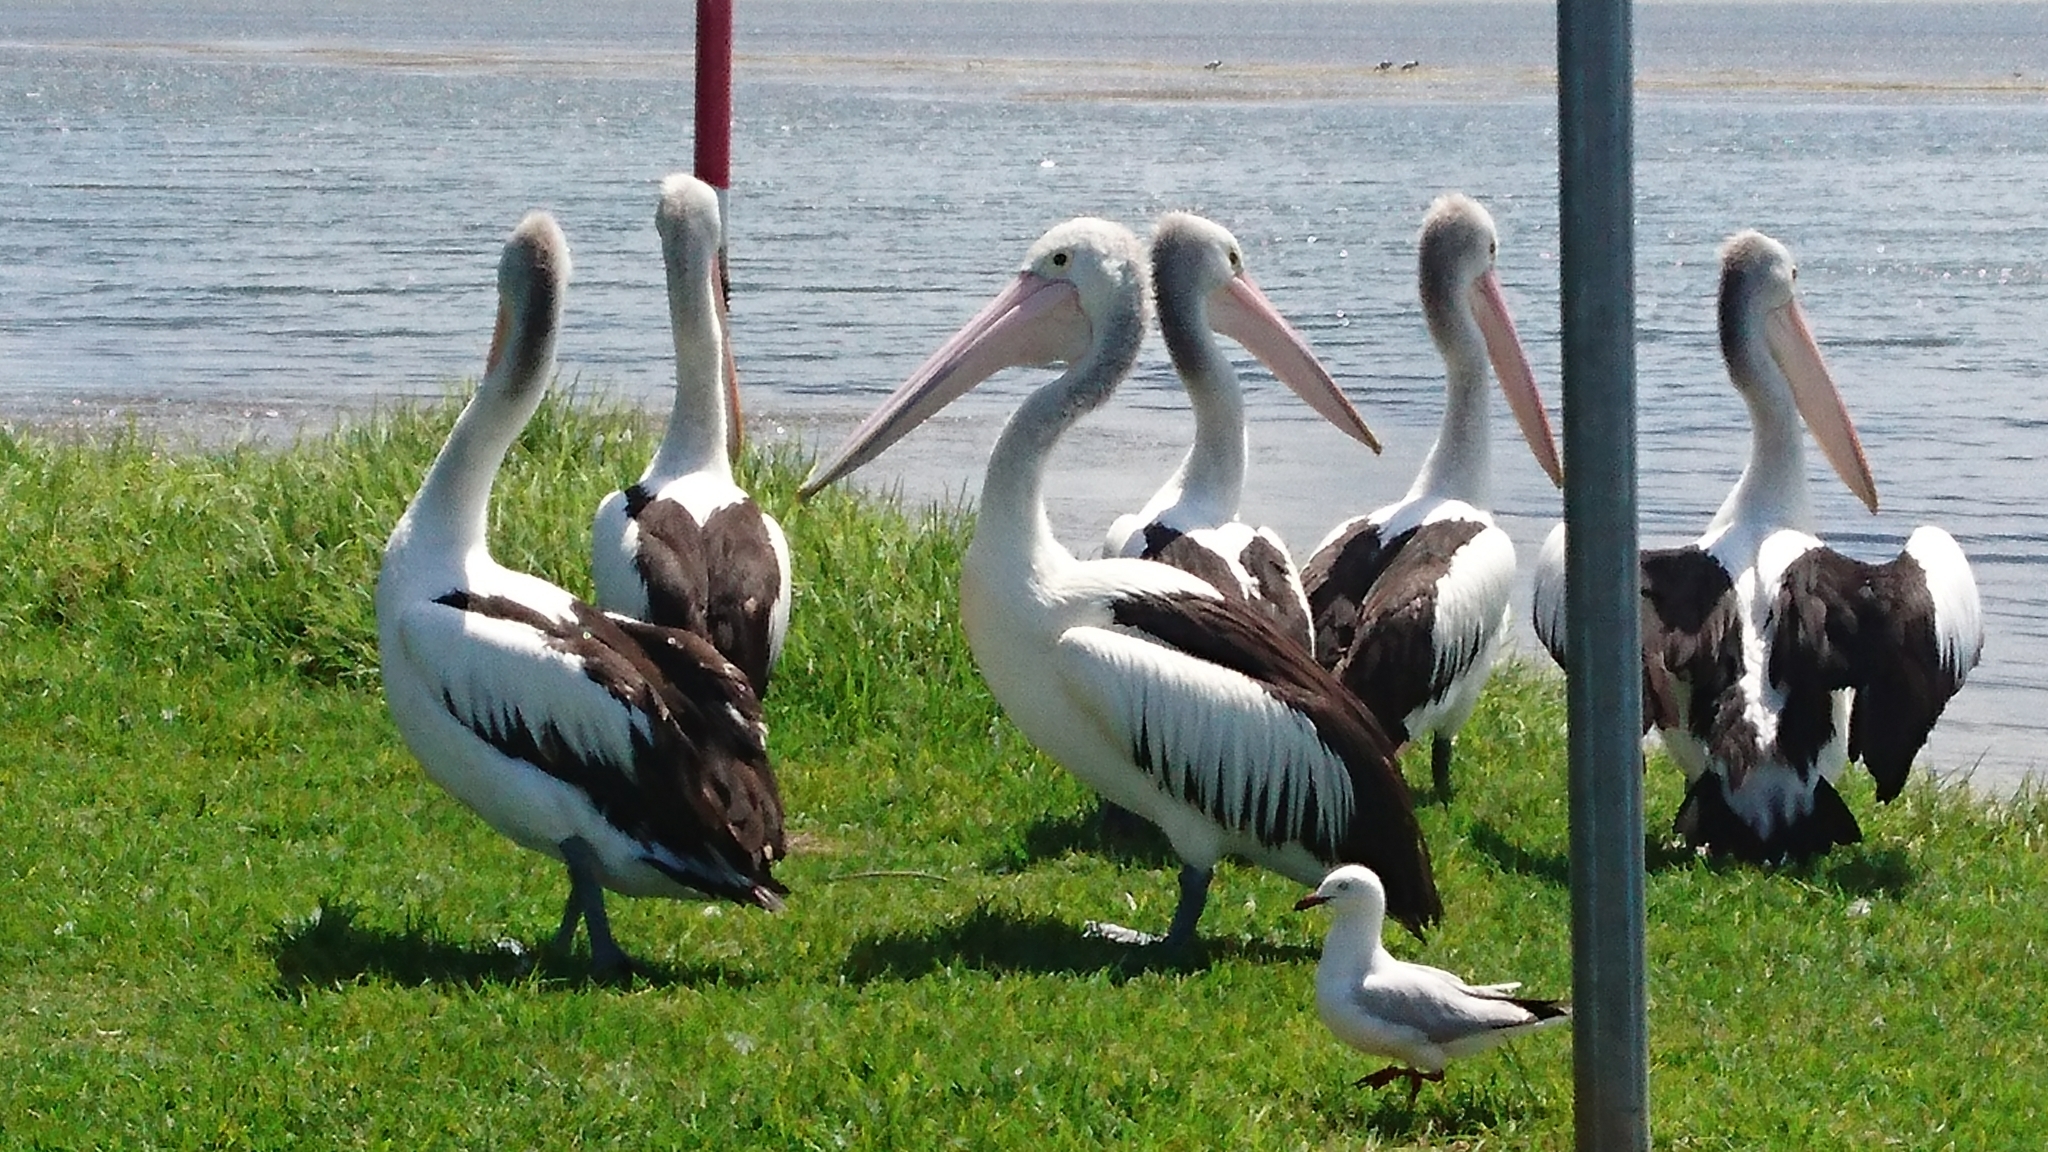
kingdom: Animalia
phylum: Chordata
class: Aves
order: Pelecaniformes
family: Pelecanidae
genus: Pelecanus
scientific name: Pelecanus conspicillatus
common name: Australian pelican
